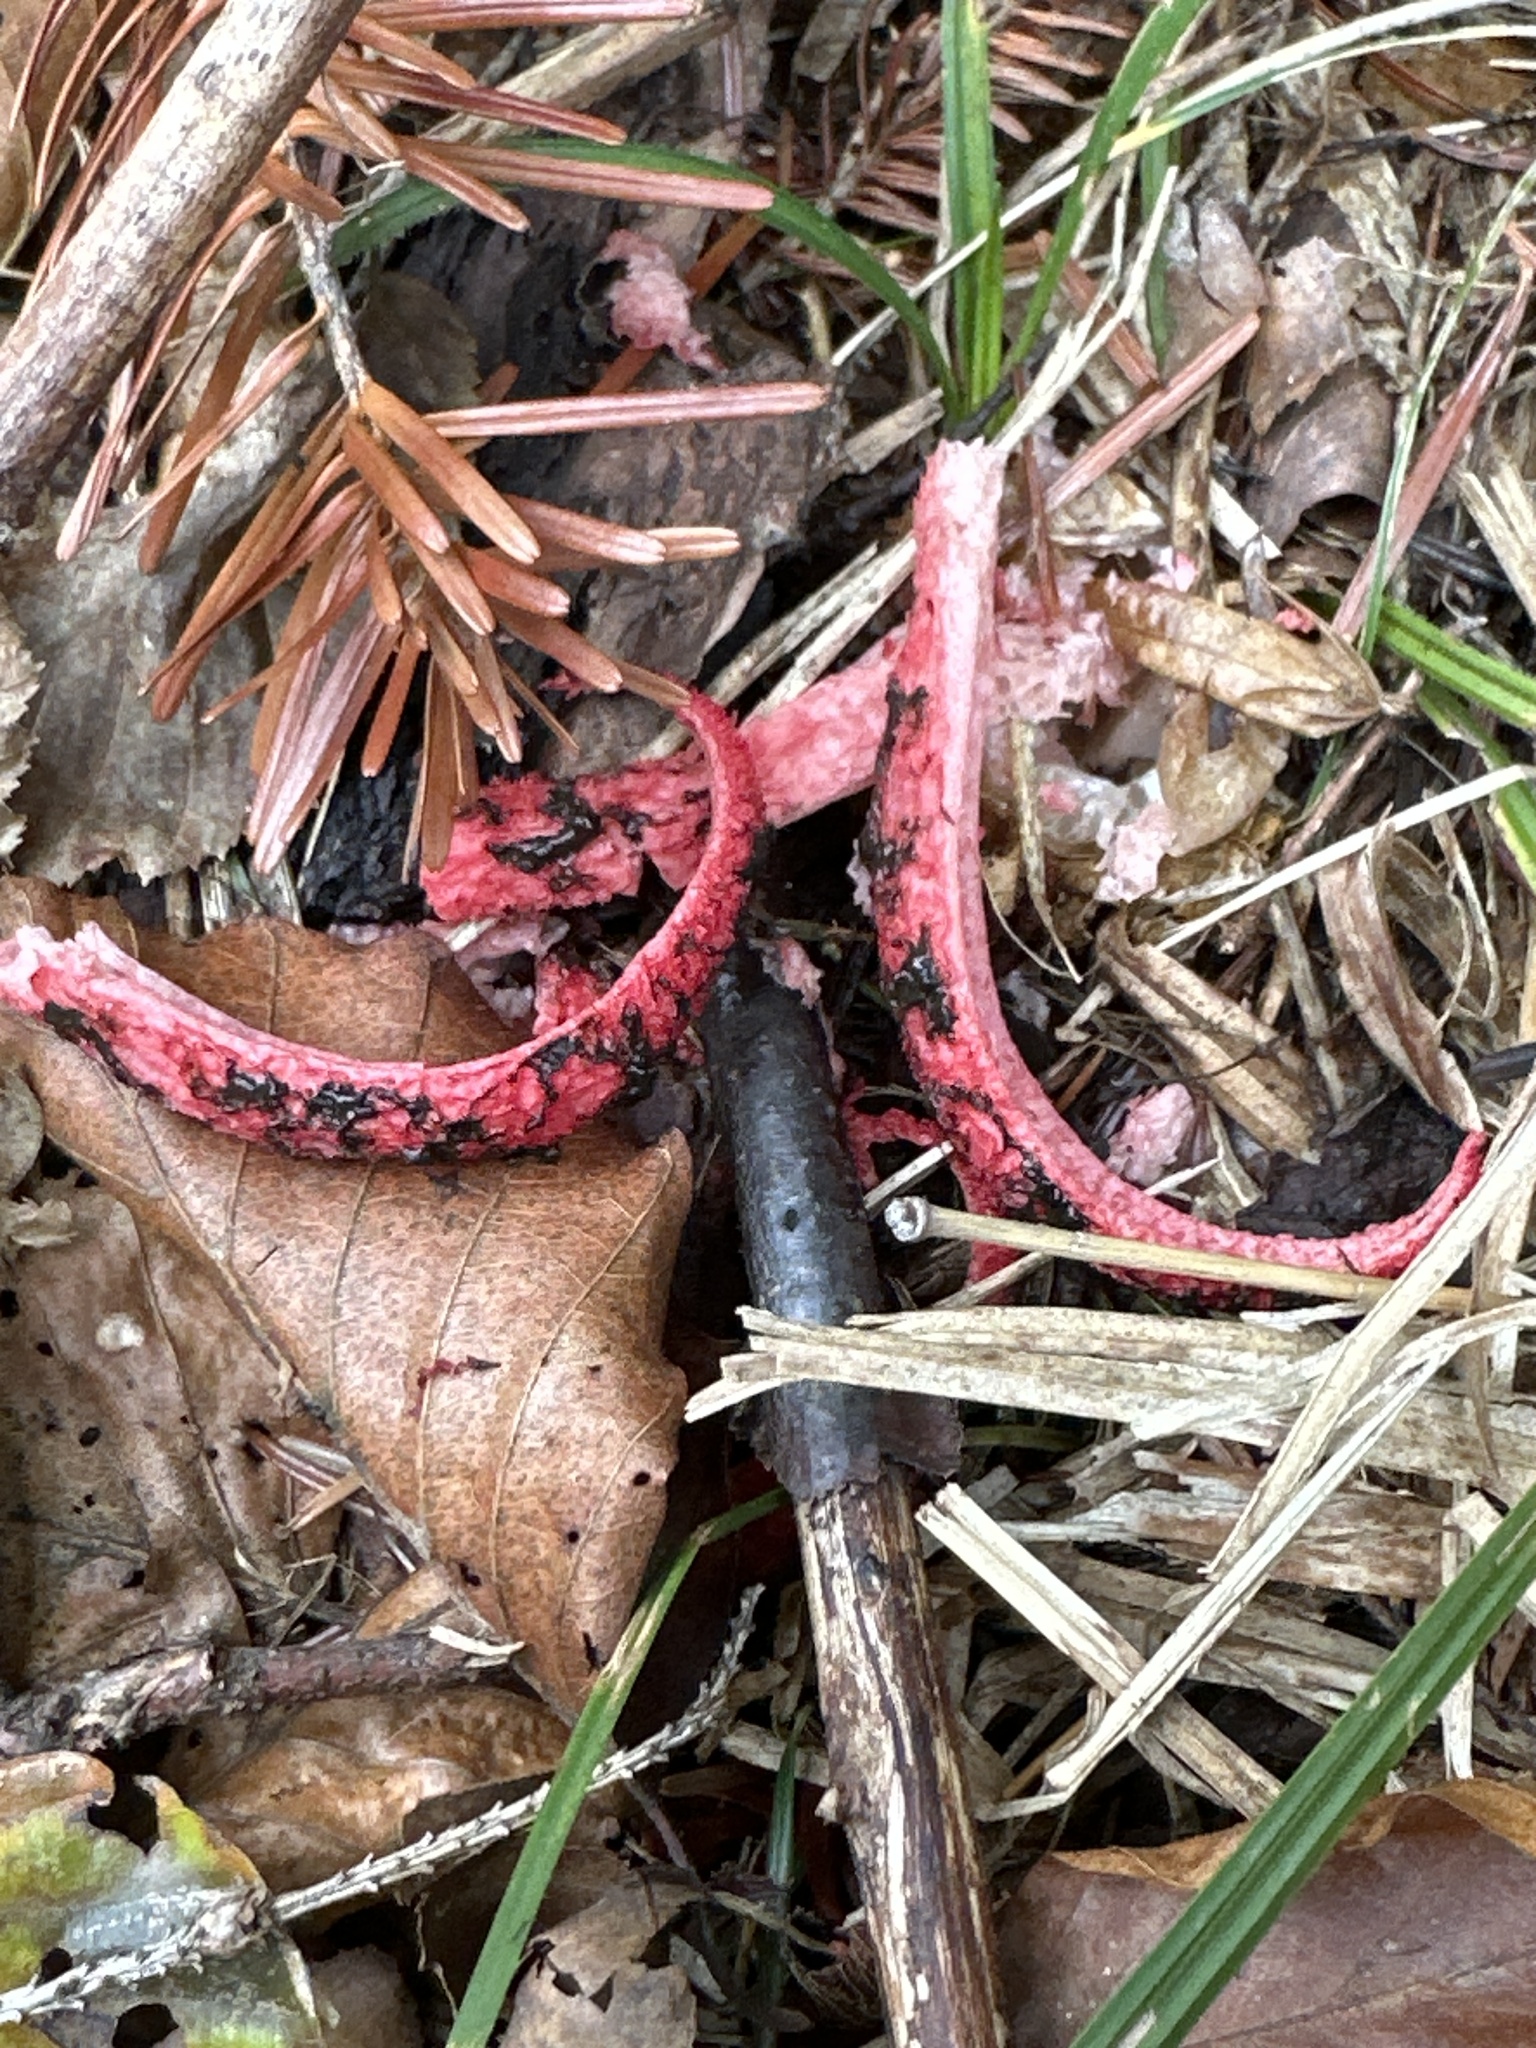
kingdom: Fungi
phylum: Basidiomycota
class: Agaricomycetes
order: Phallales
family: Phallaceae
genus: Clathrus
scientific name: Clathrus archeri
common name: Devil's fingers
